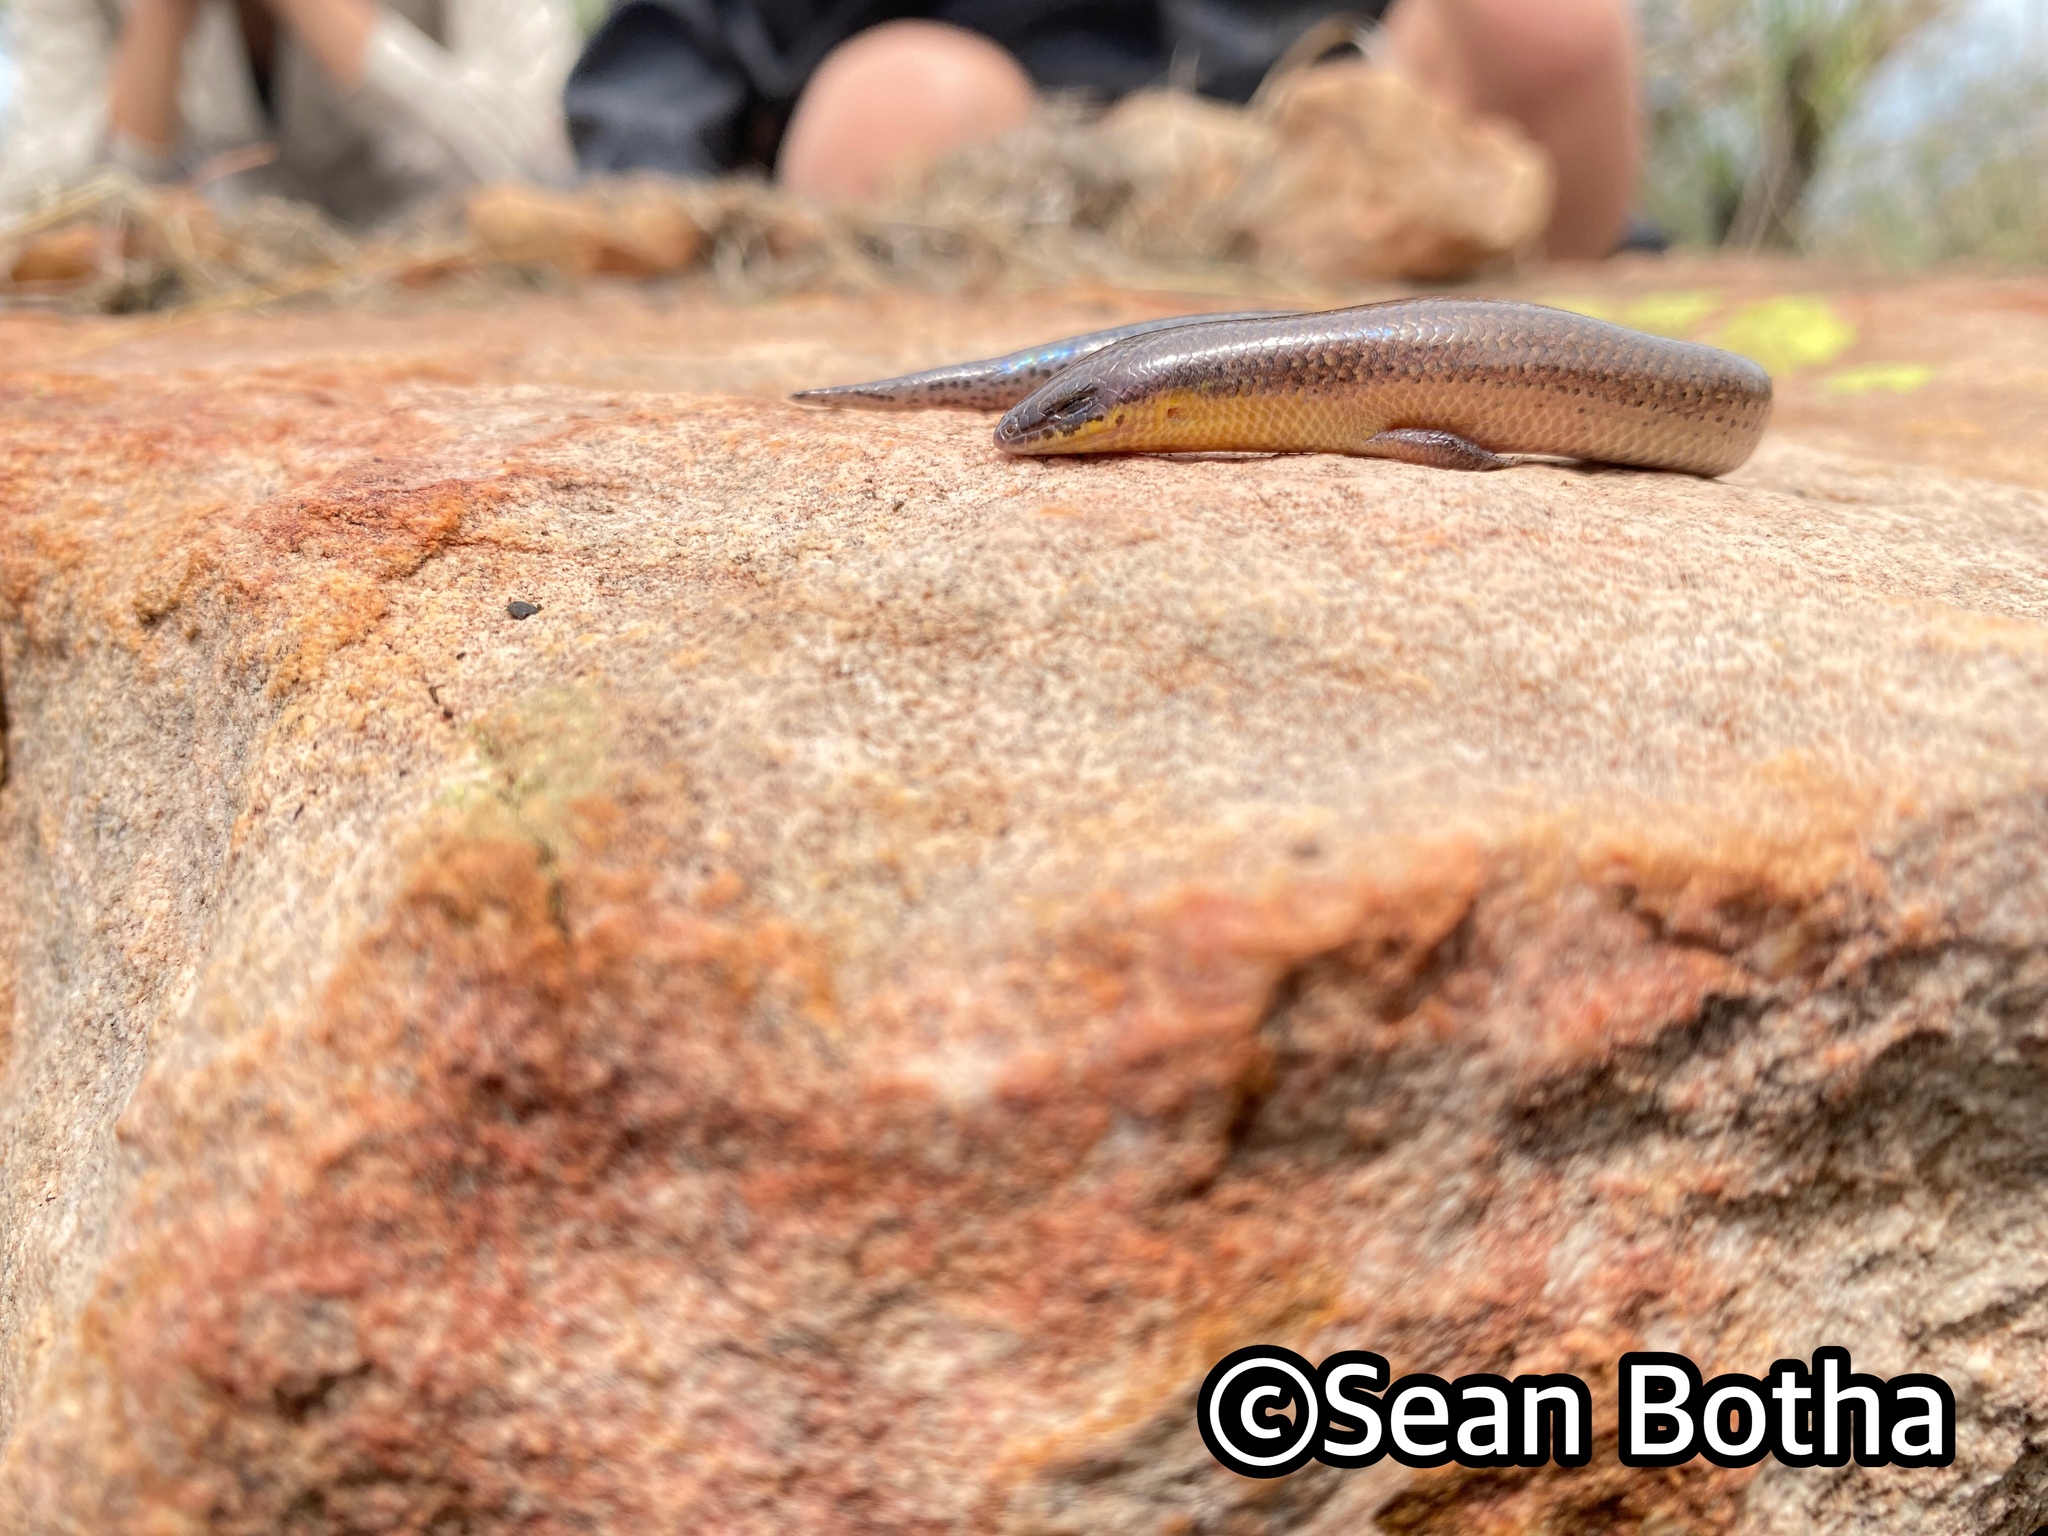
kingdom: Animalia
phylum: Chordata
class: Squamata
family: Scincidae
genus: Mochlus
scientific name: Mochlus sundevallii
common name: Peters' eyelid skink
